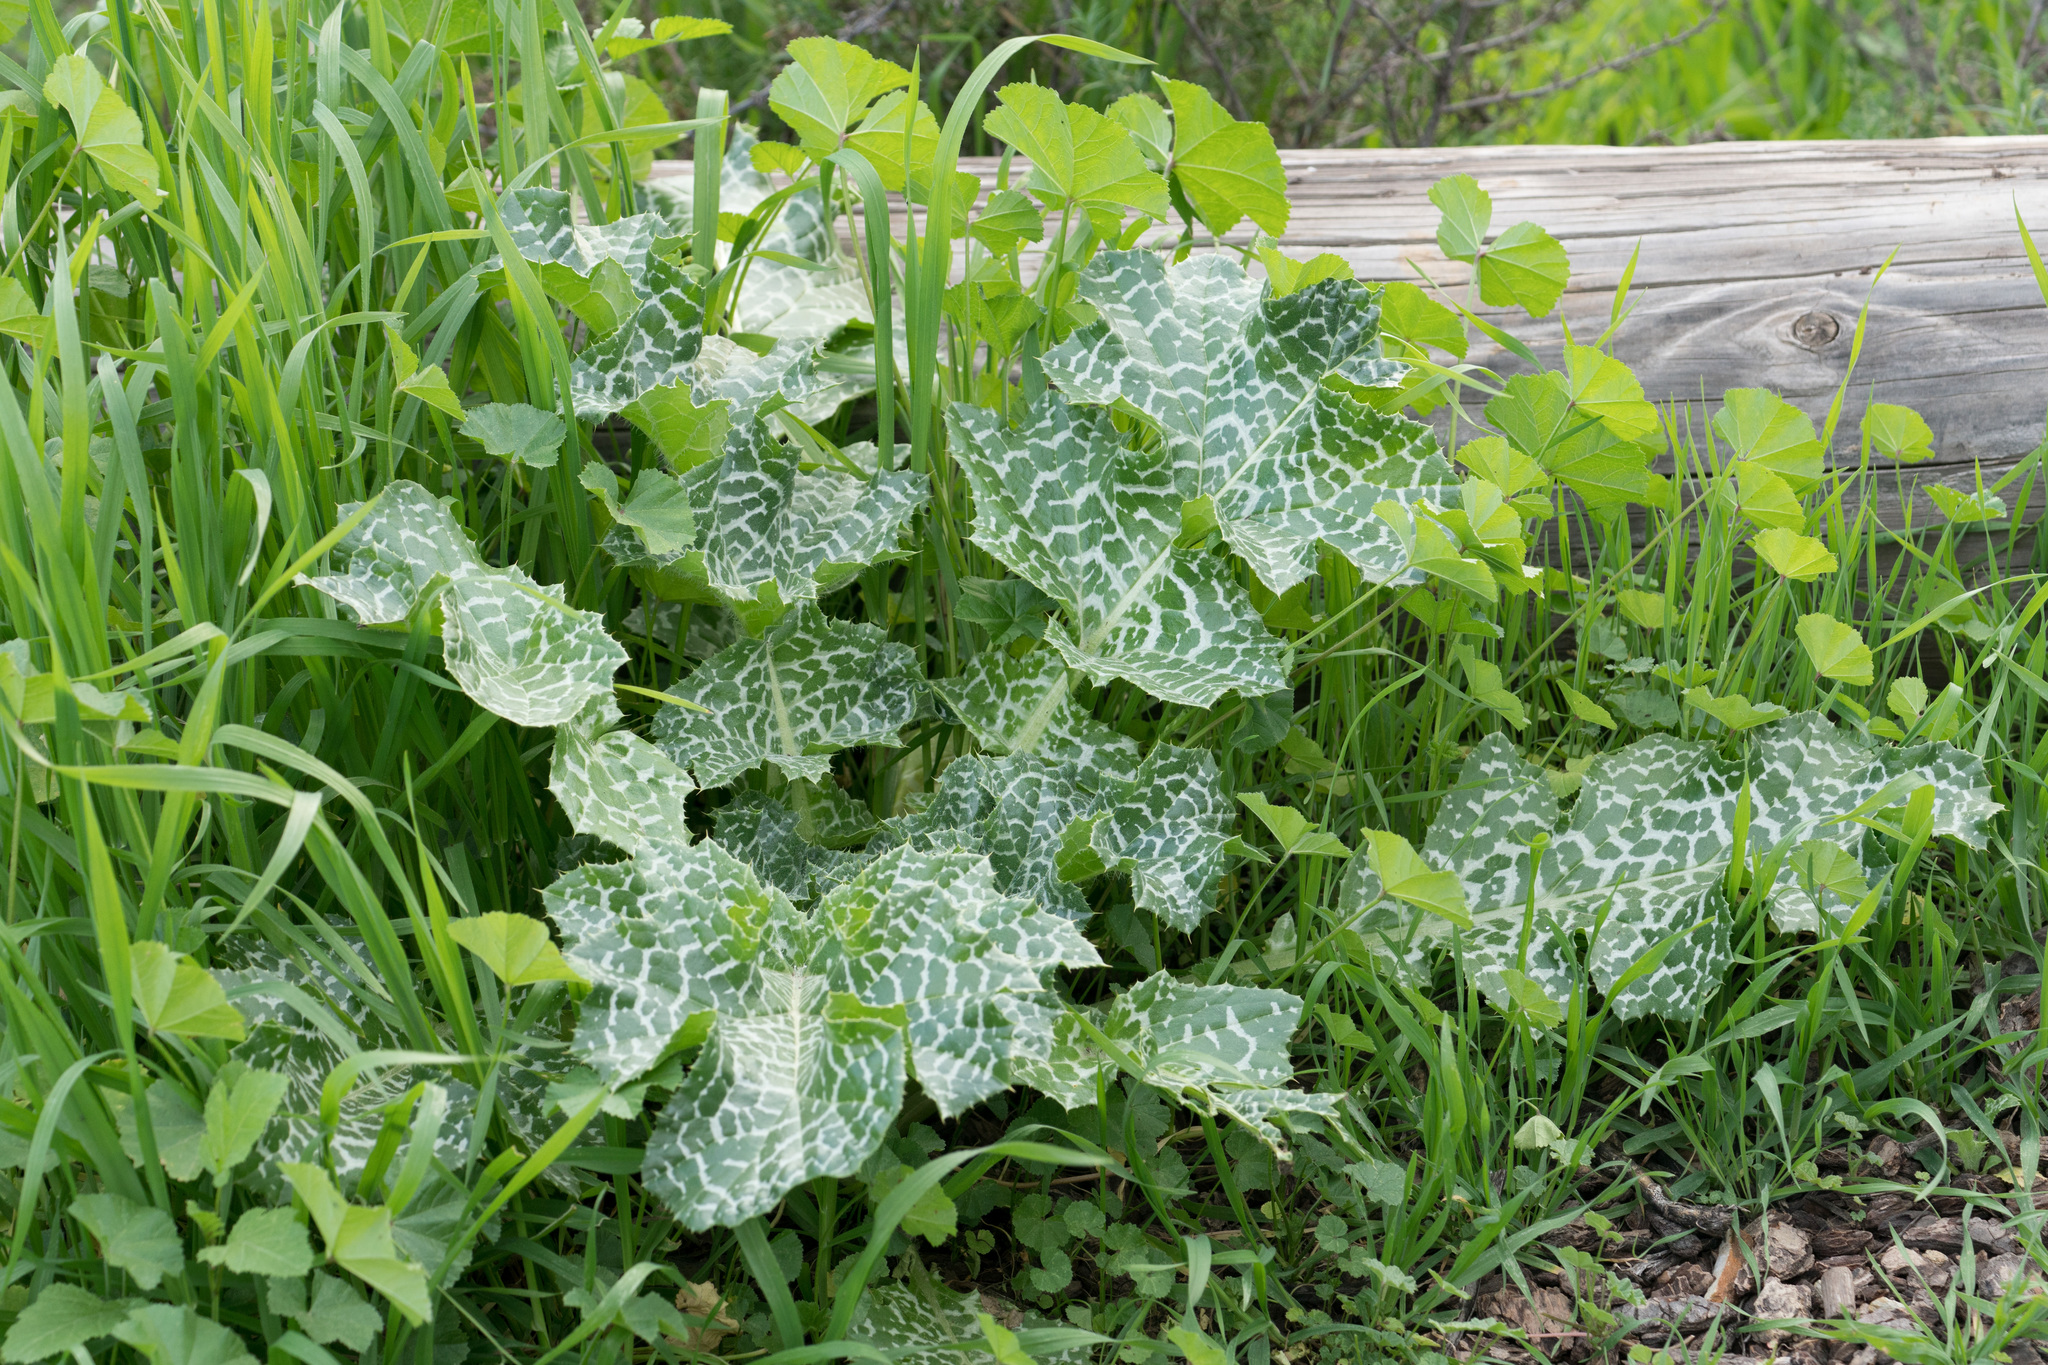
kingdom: Plantae
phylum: Tracheophyta
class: Magnoliopsida
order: Asterales
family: Asteraceae
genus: Silybum
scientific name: Silybum marianum
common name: Milk thistle
